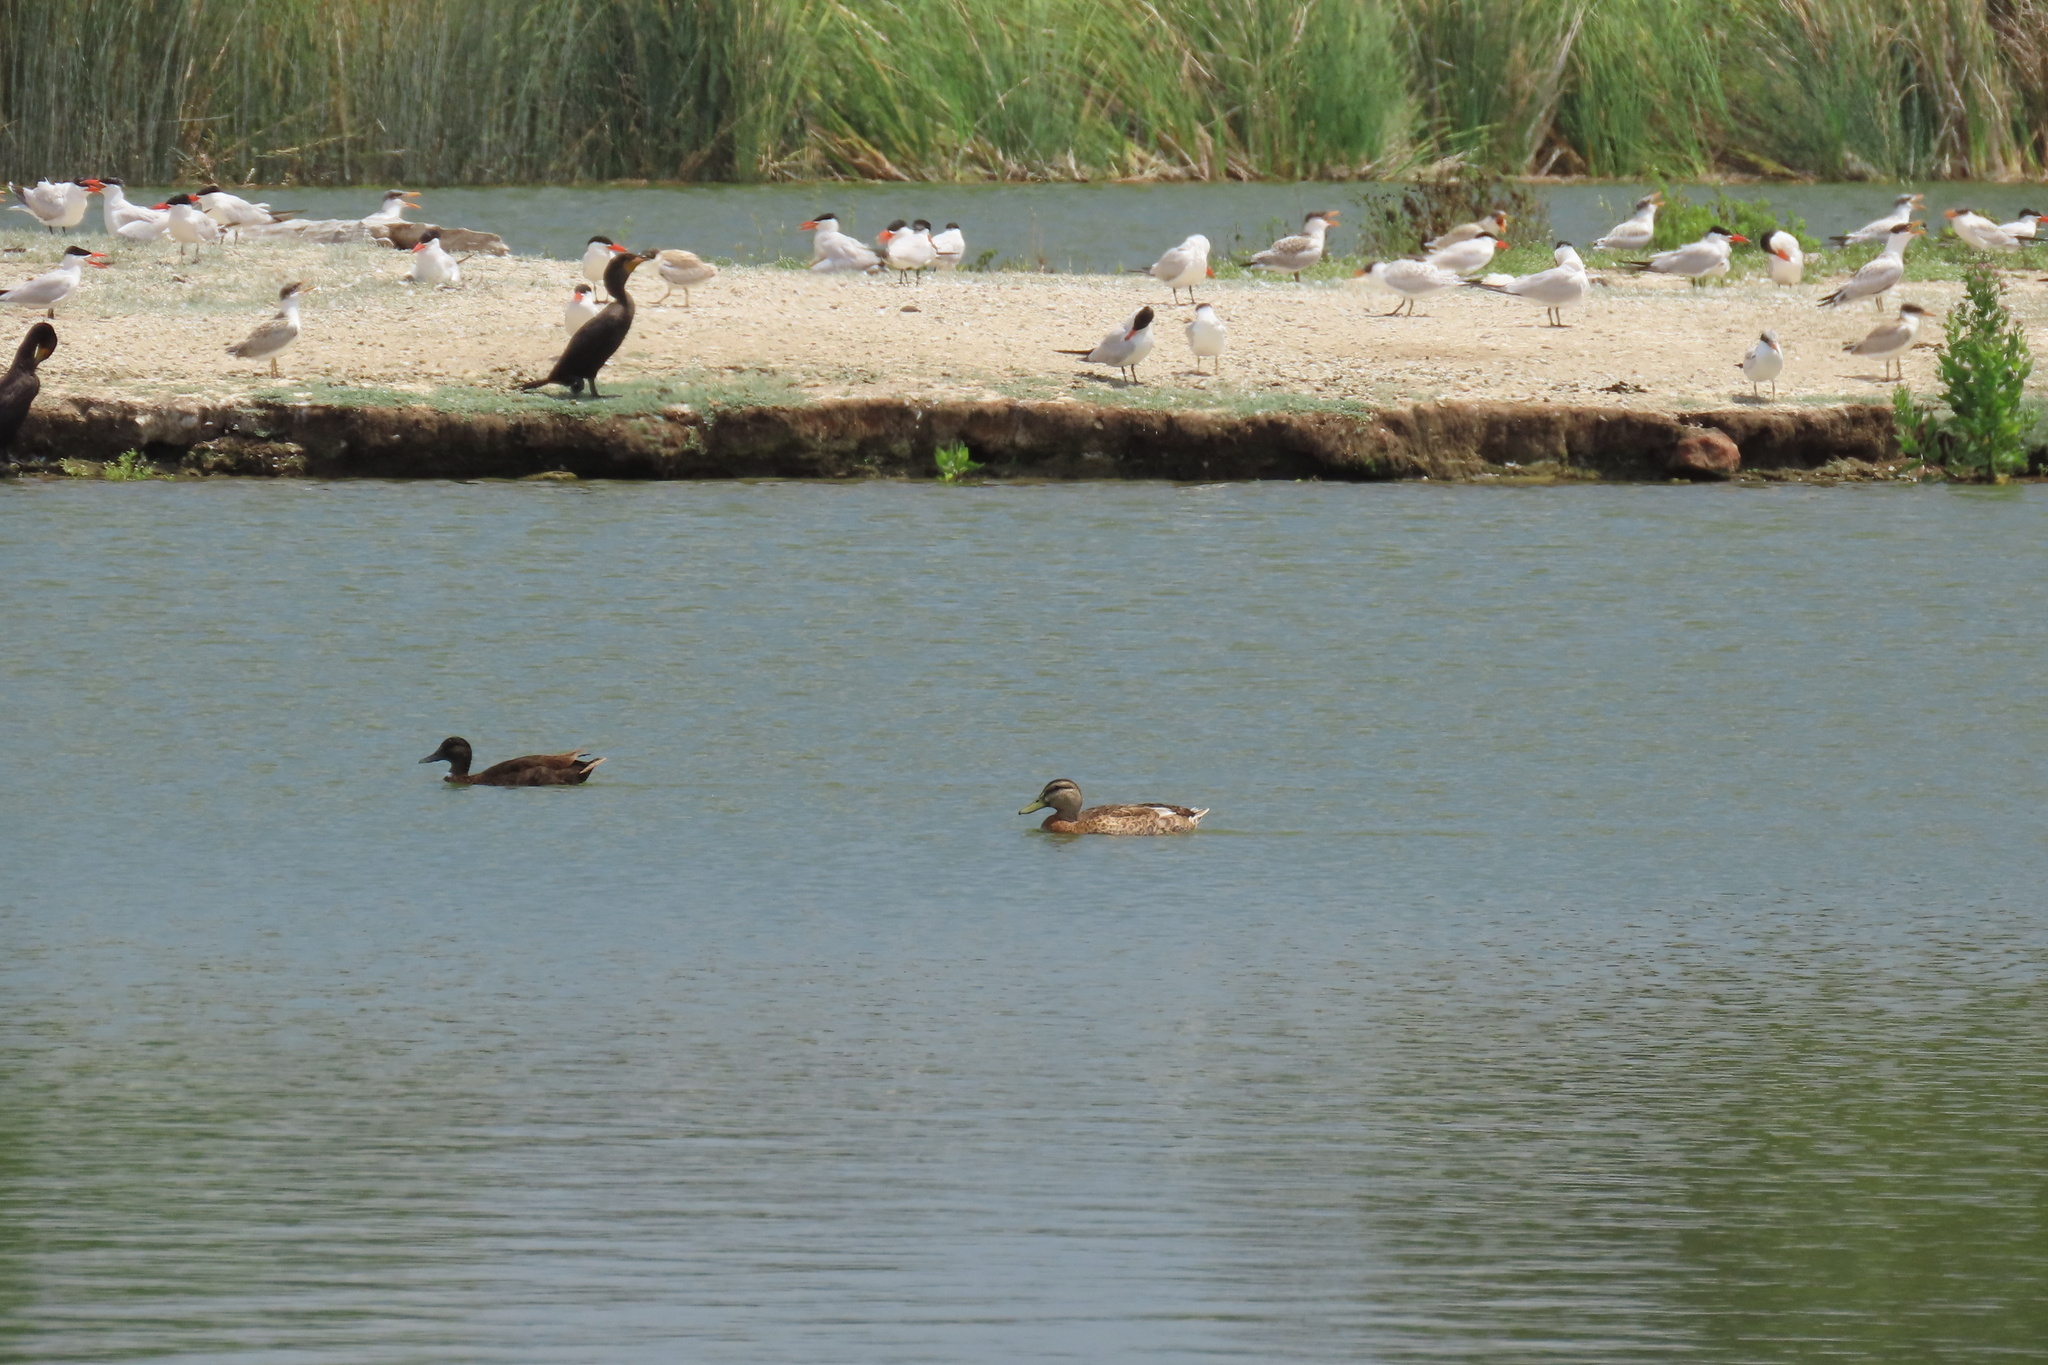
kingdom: Animalia
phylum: Chordata
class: Aves
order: Anseriformes
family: Anatidae
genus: Anas
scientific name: Anas platyrhynchos
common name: Mallard
